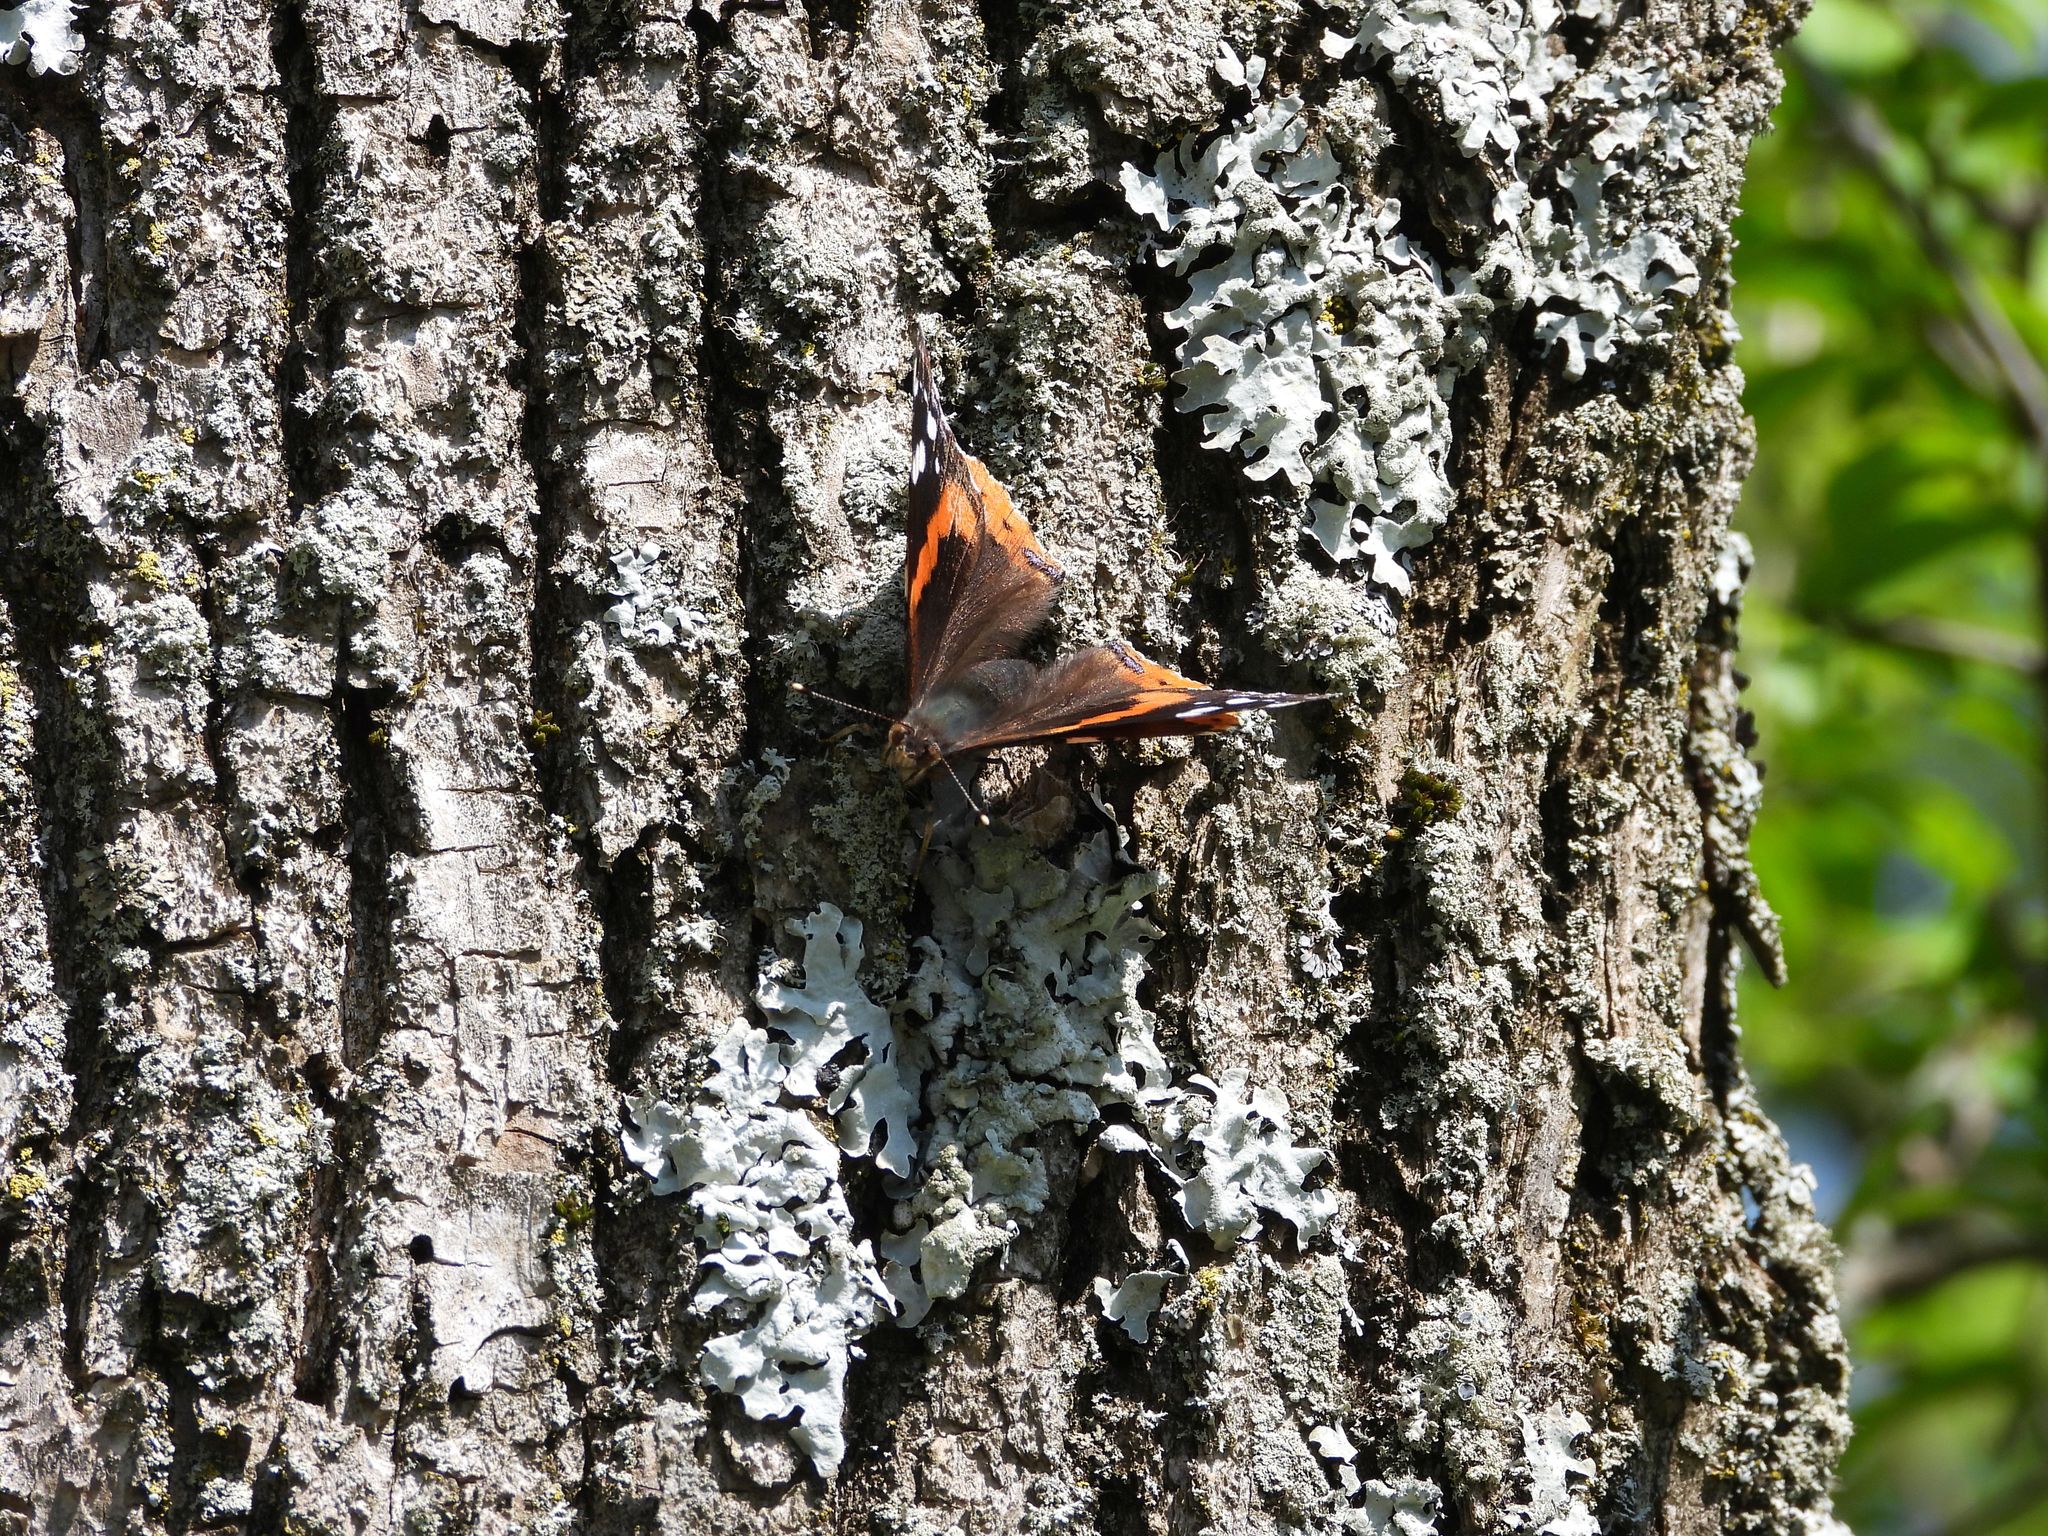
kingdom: Animalia
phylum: Arthropoda
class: Insecta
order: Lepidoptera
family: Nymphalidae
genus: Vanessa
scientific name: Vanessa atalanta
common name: Red admiral
